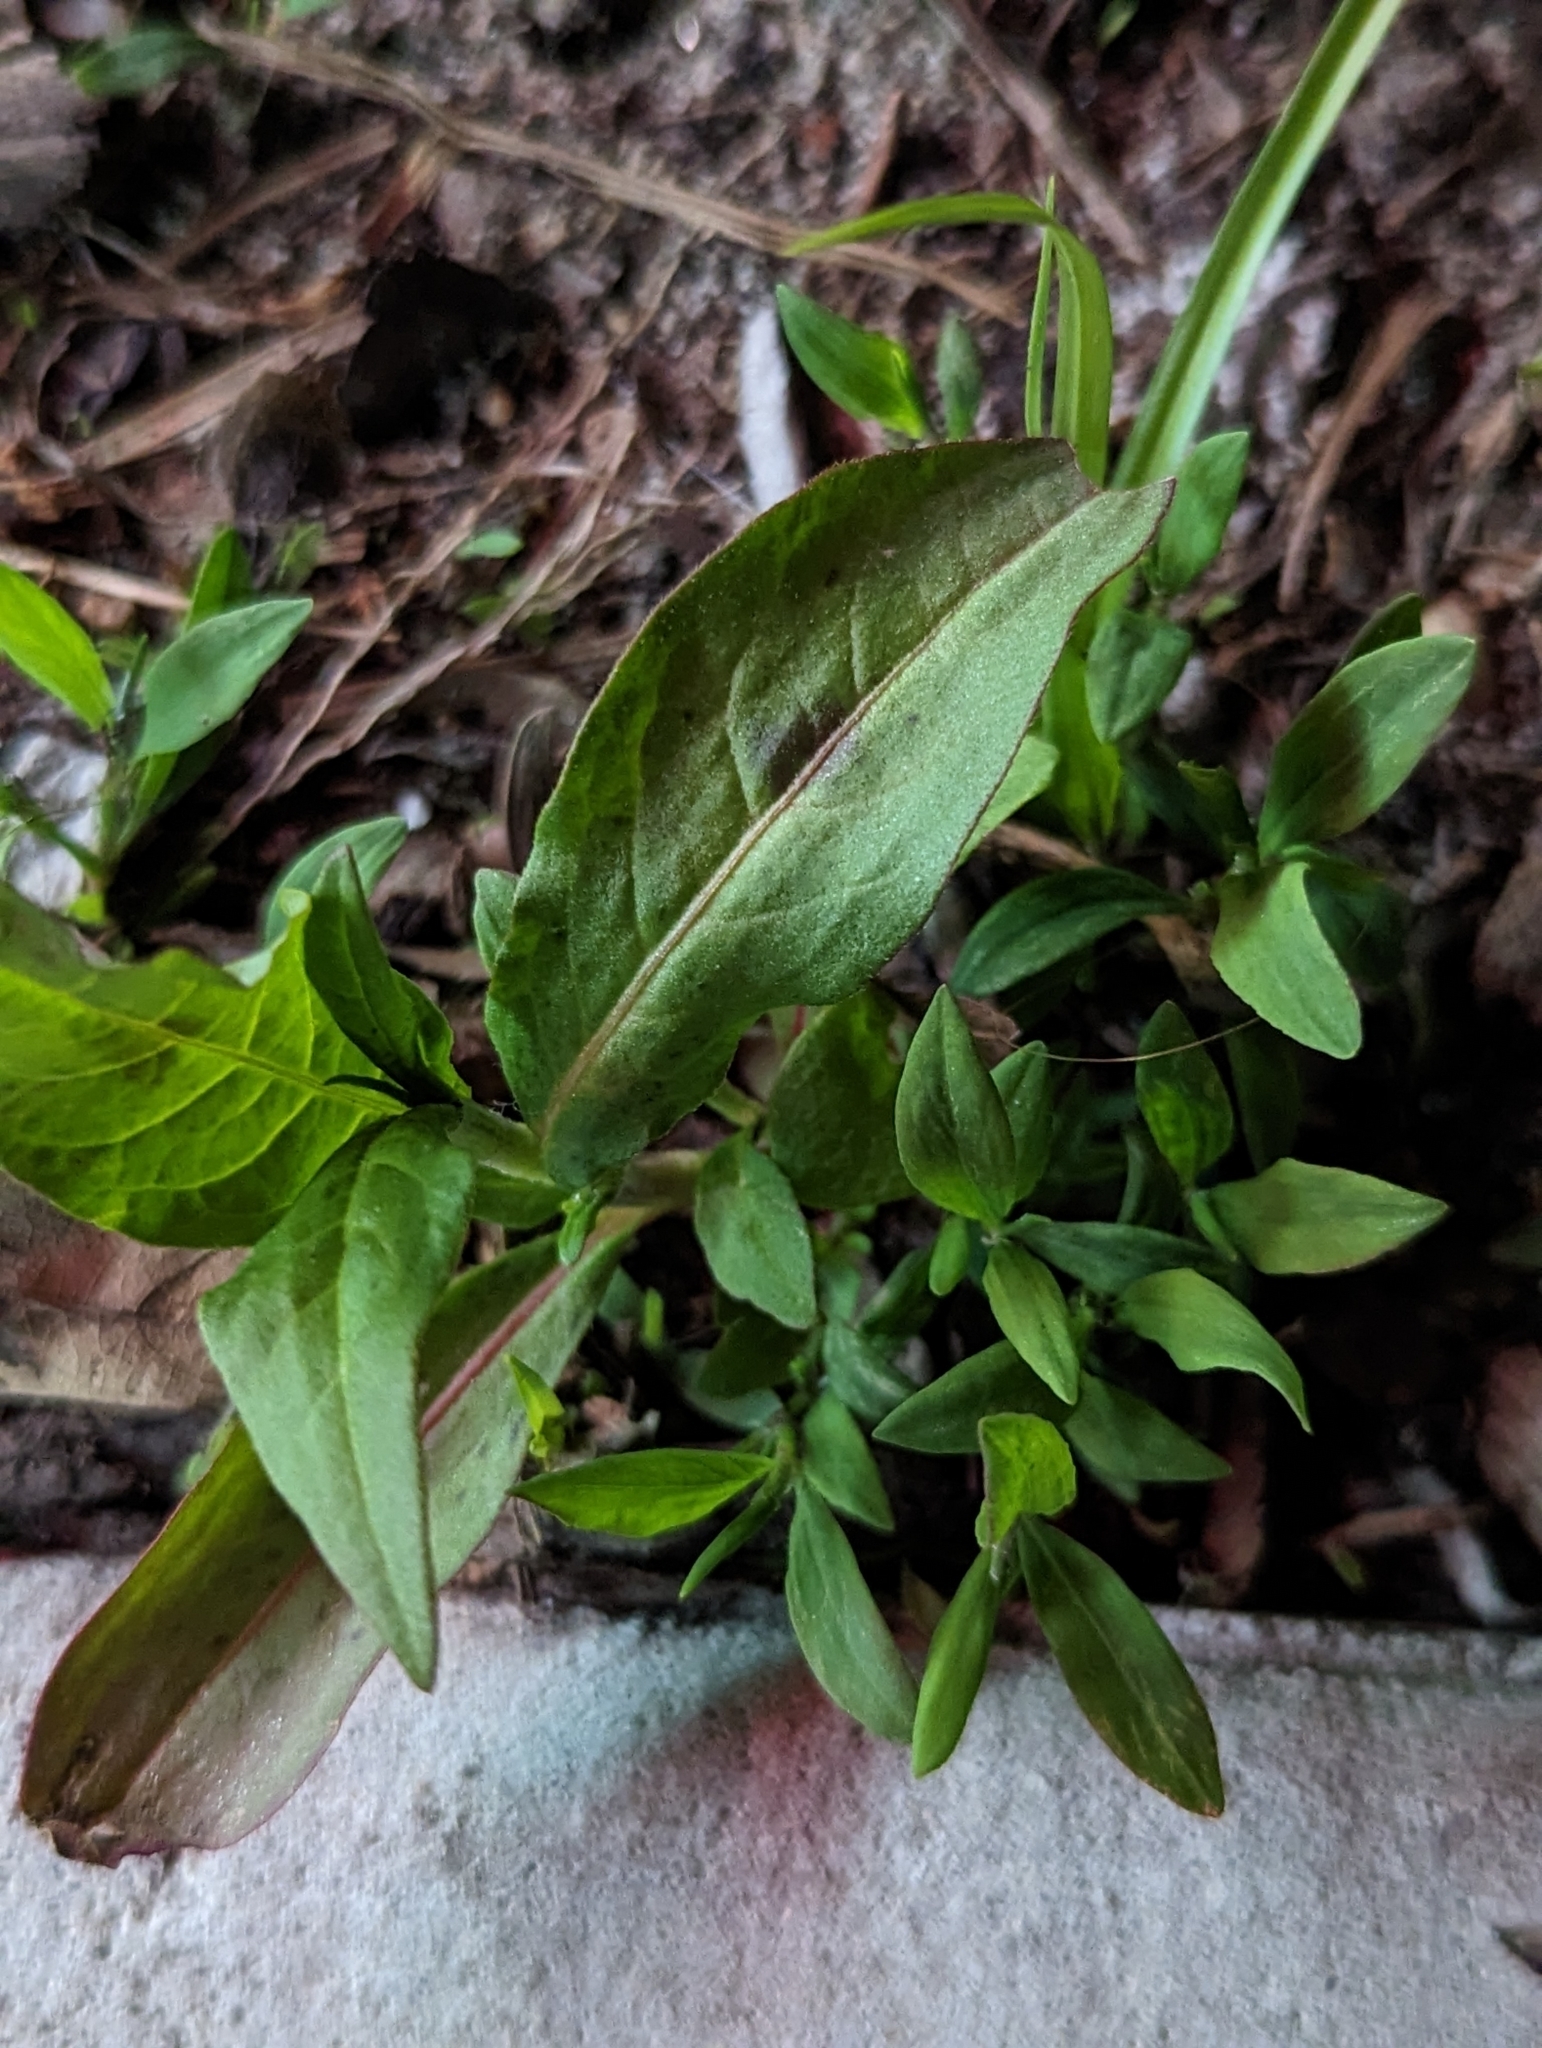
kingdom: Plantae
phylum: Tracheophyta
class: Magnoliopsida
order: Caryophyllales
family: Polygonaceae
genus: Persicaria
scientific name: Persicaria maculosa
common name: Redshank
